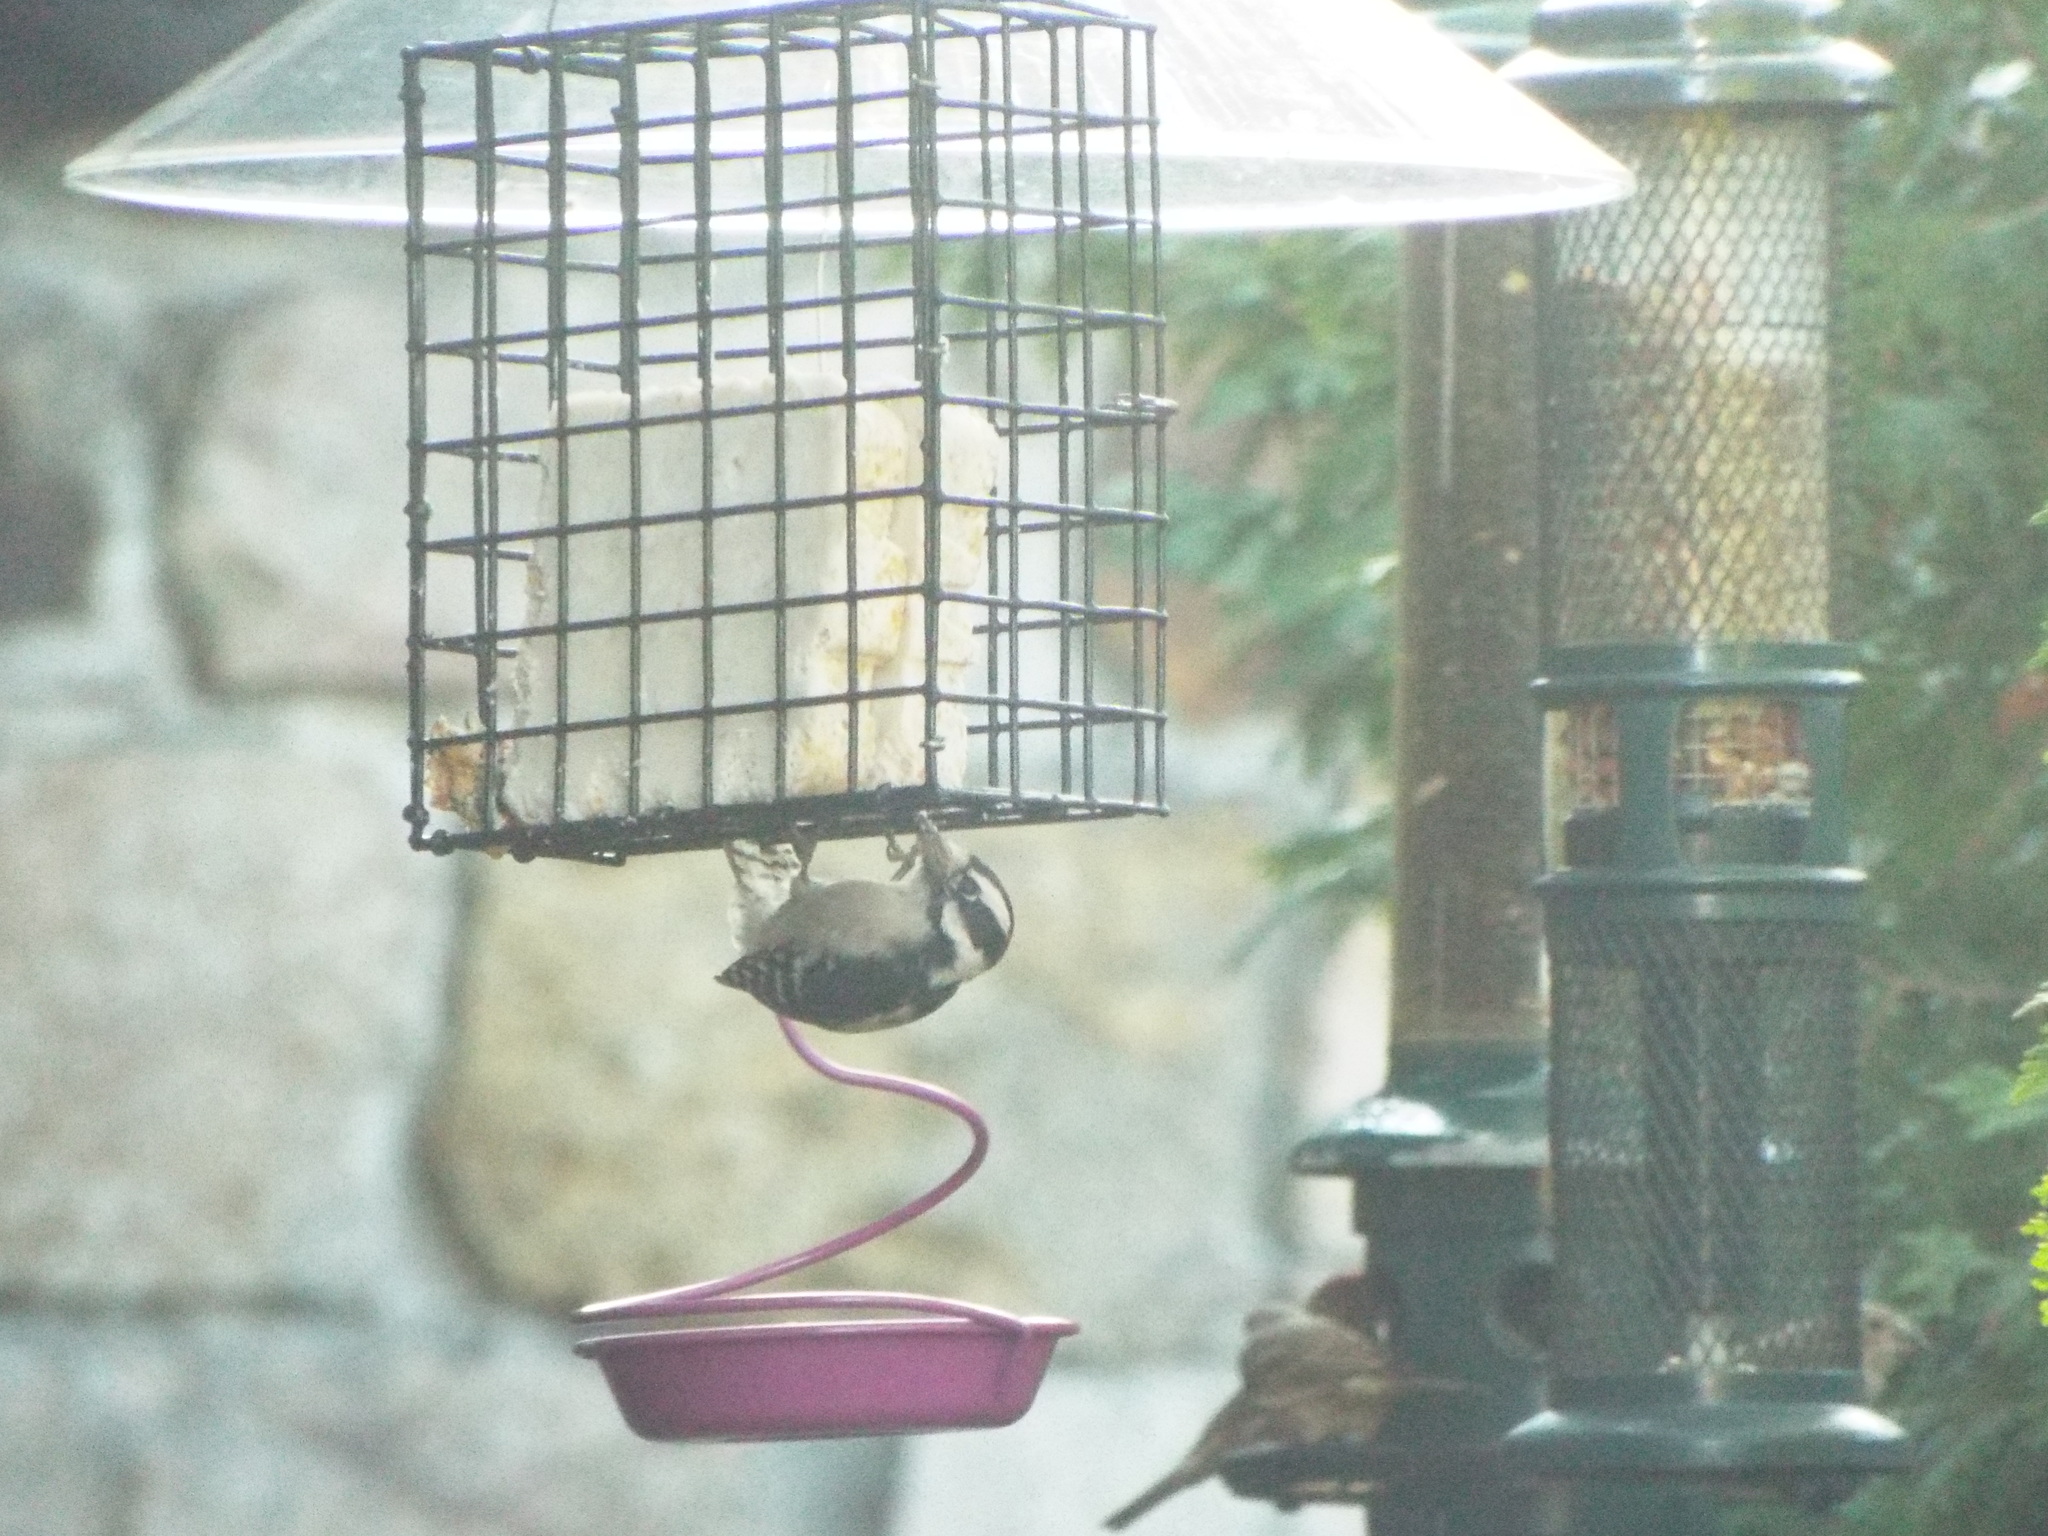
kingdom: Animalia
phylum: Chordata
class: Aves
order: Piciformes
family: Picidae
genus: Dryobates
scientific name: Dryobates pubescens
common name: Downy woodpecker
